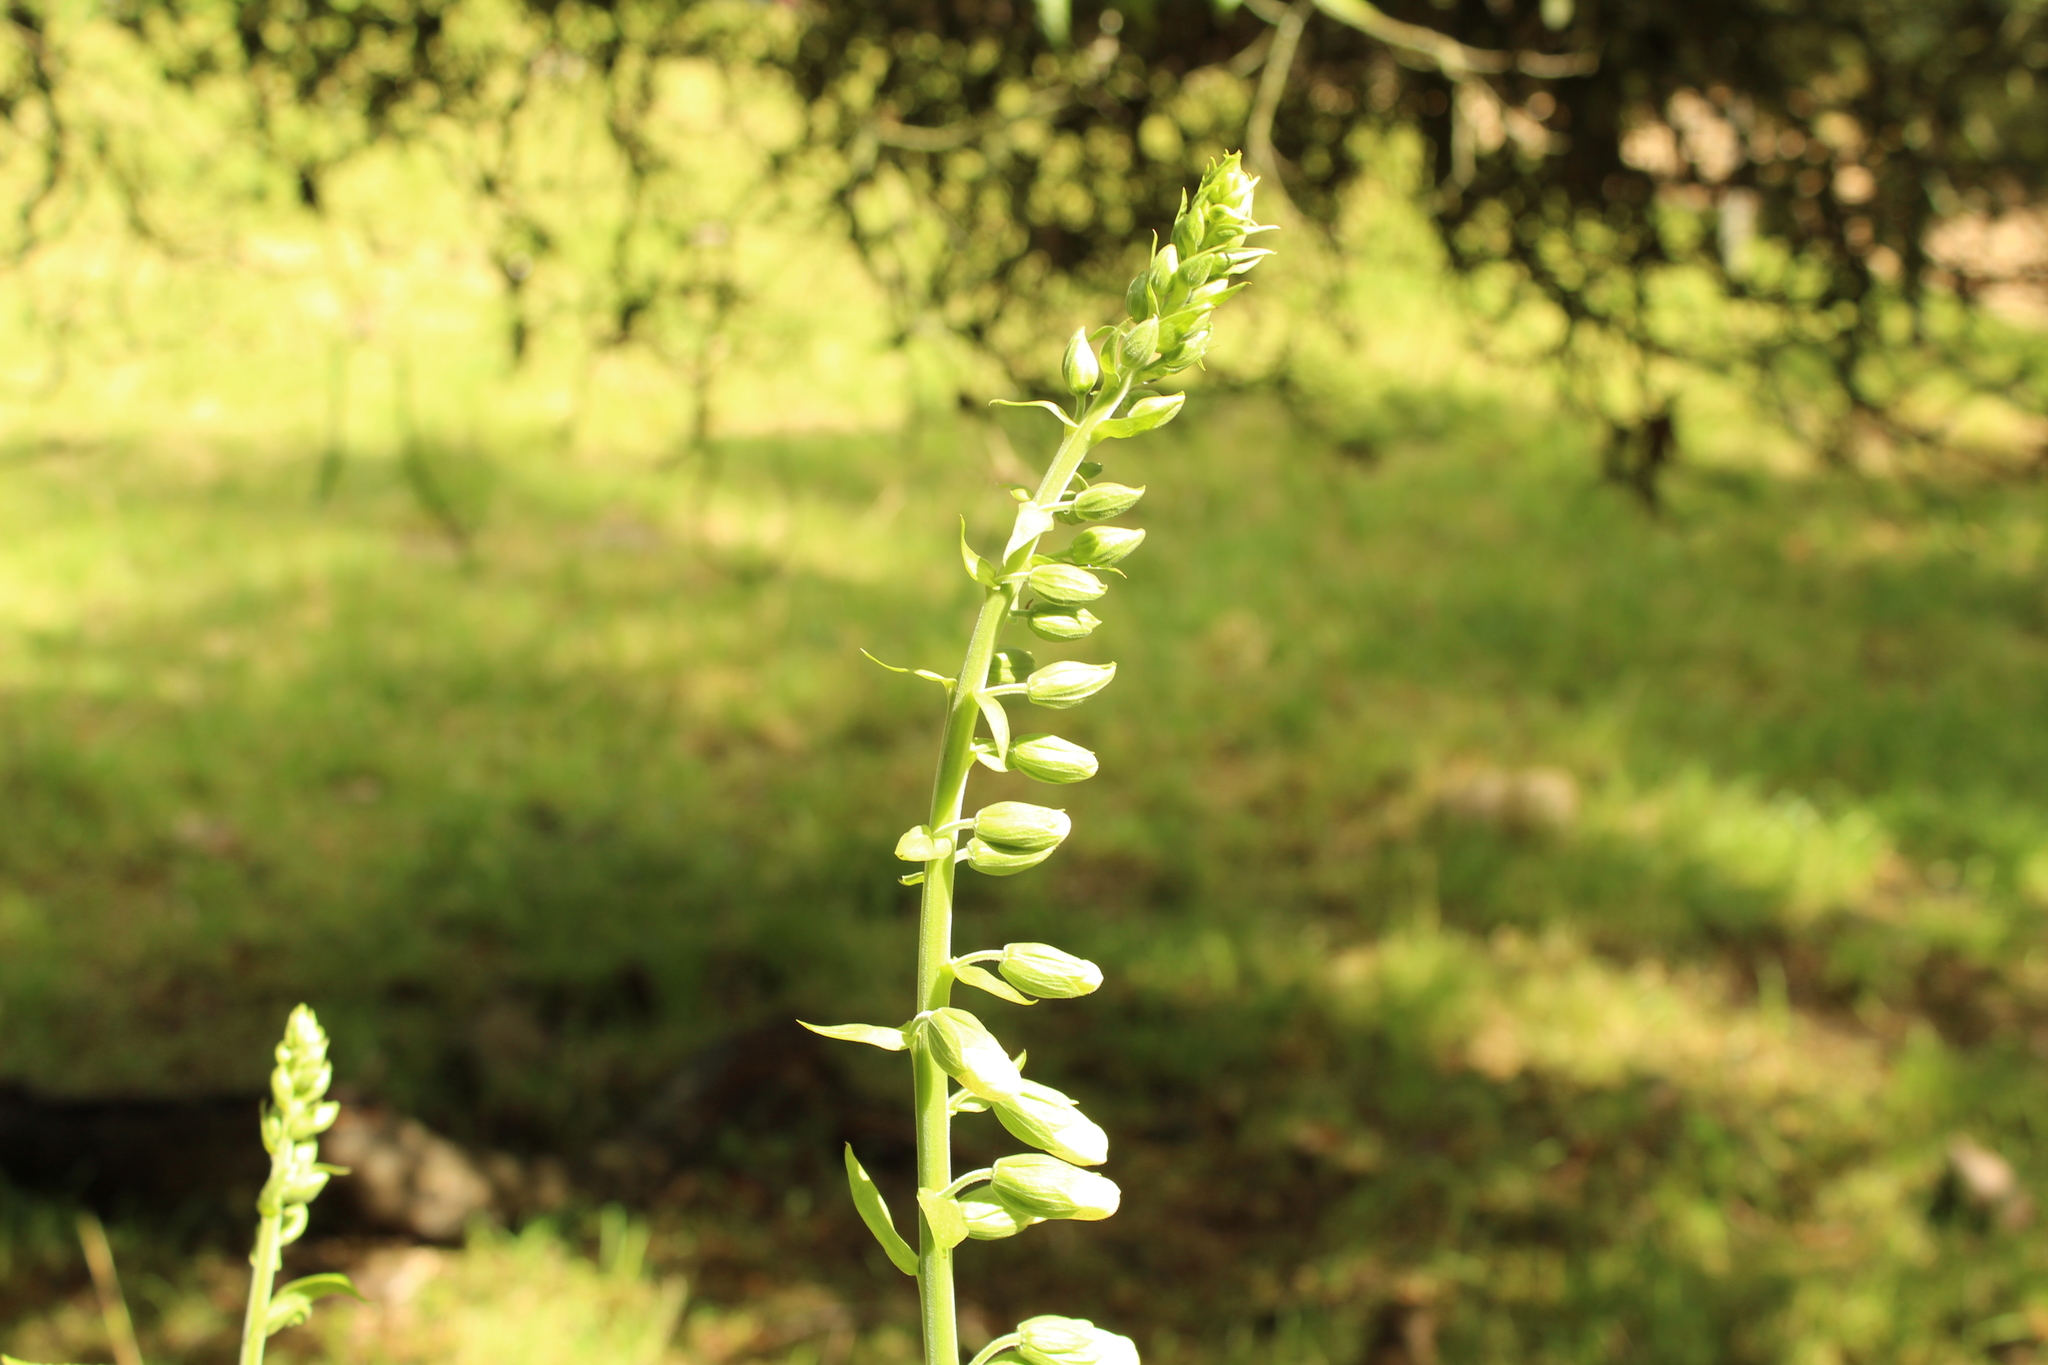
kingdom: Plantae
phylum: Tracheophyta
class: Magnoliopsida
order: Lamiales
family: Plantaginaceae
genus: Digitalis
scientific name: Digitalis purpurea
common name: Foxglove
